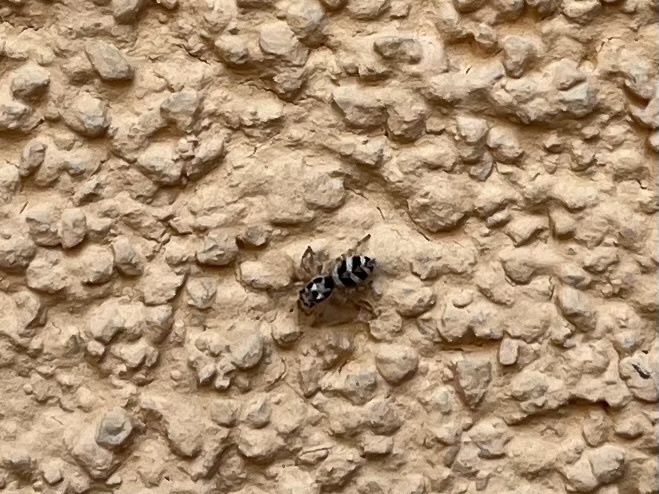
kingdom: Animalia
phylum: Arthropoda
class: Arachnida
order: Araneae
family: Salticidae
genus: Salticus
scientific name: Salticus scenicus
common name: Zebra jumper
